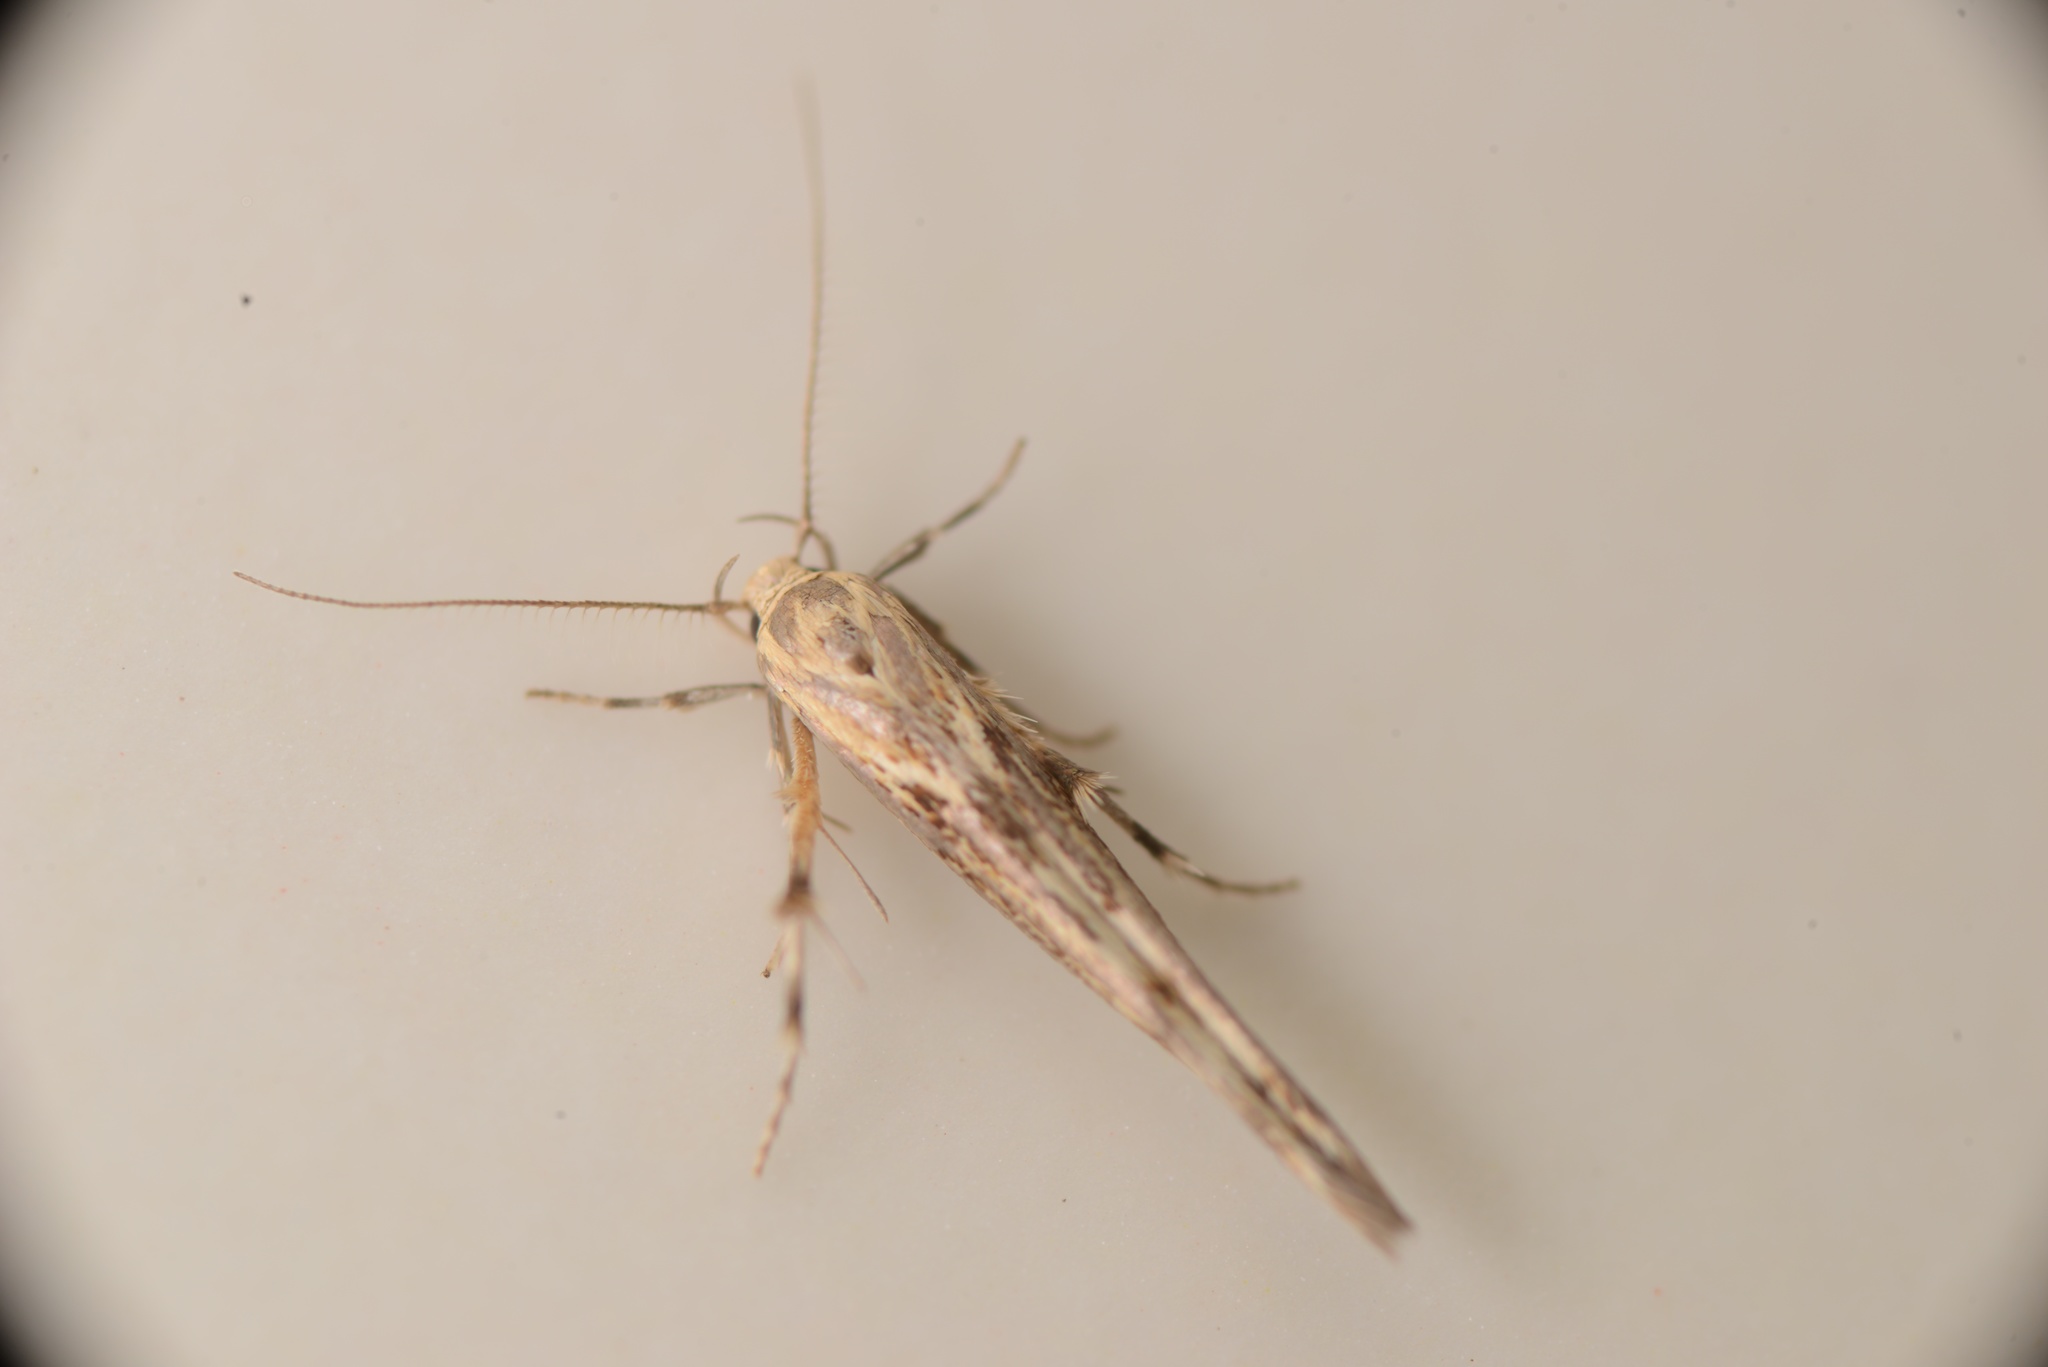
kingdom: Animalia
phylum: Arthropoda
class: Insecta
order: Lepidoptera
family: Stathmopodidae
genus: Stathmopoda
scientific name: Stathmopoda plumbiflua
